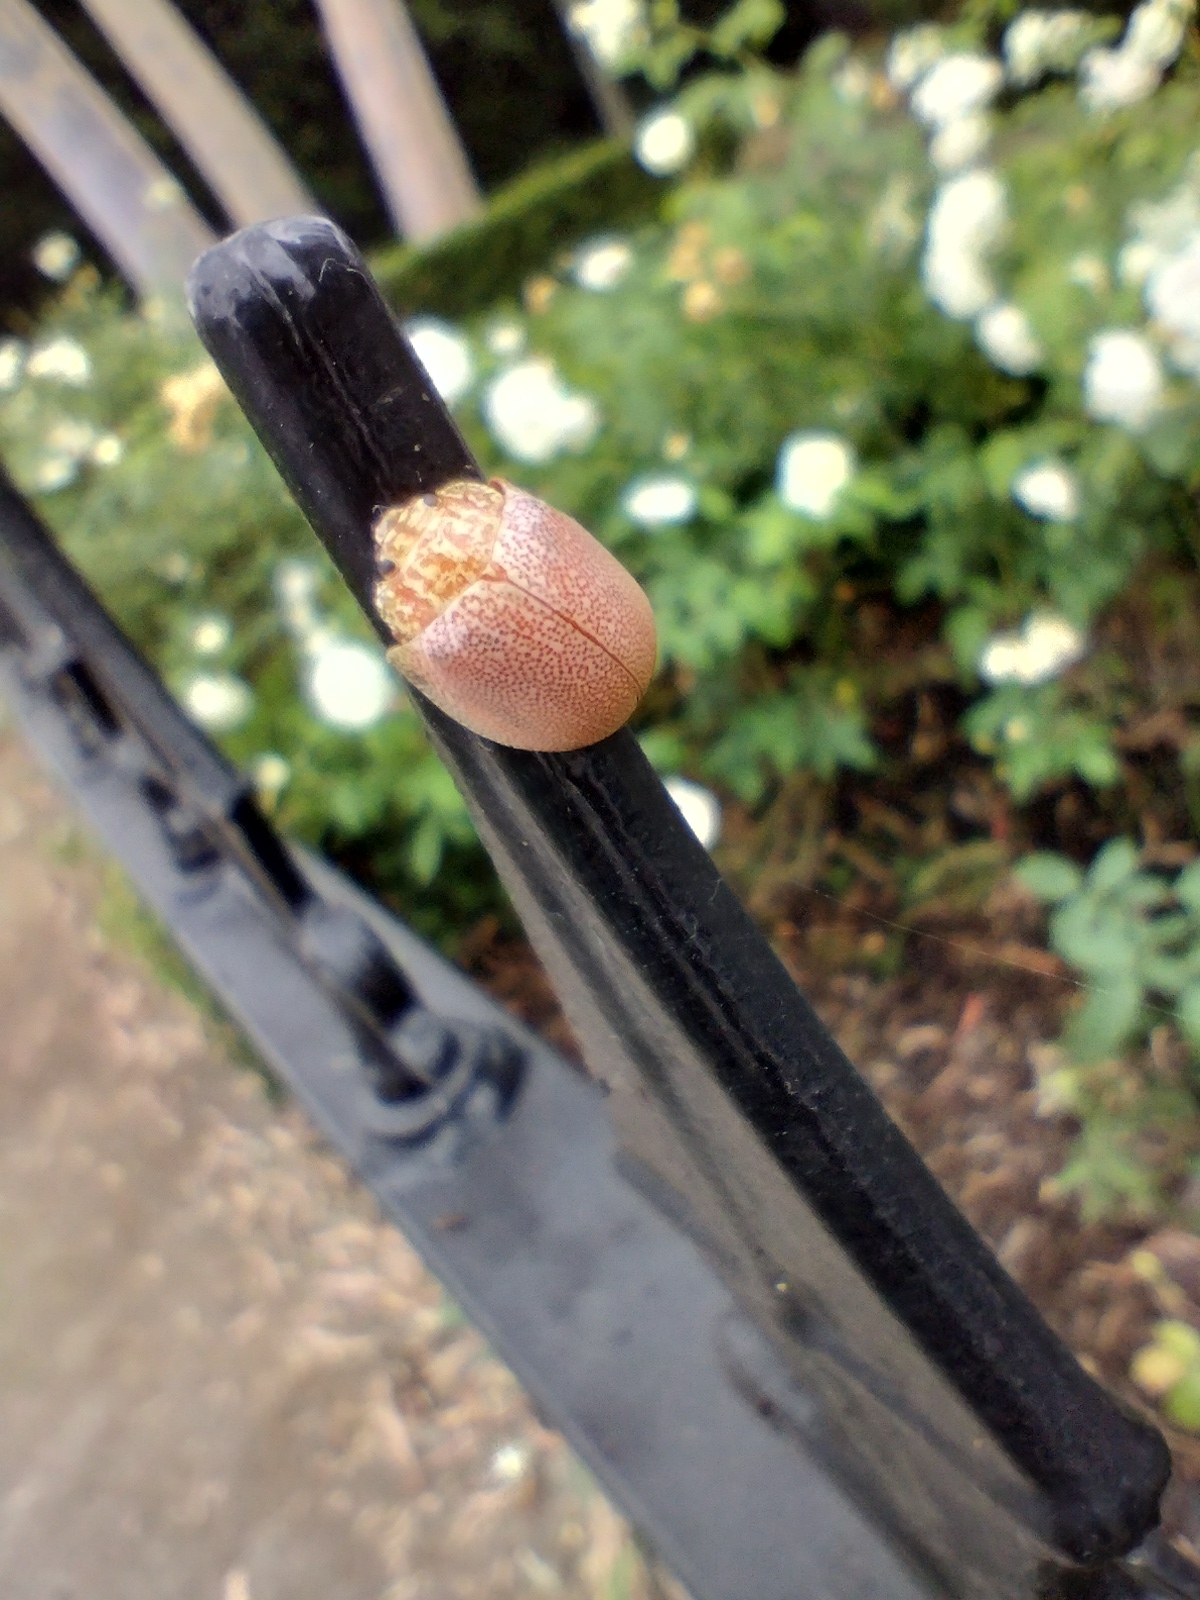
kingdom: Animalia
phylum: Arthropoda
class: Insecta
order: Coleoptera
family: Chrysomelidae
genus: Paropsis
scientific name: Paropsis
